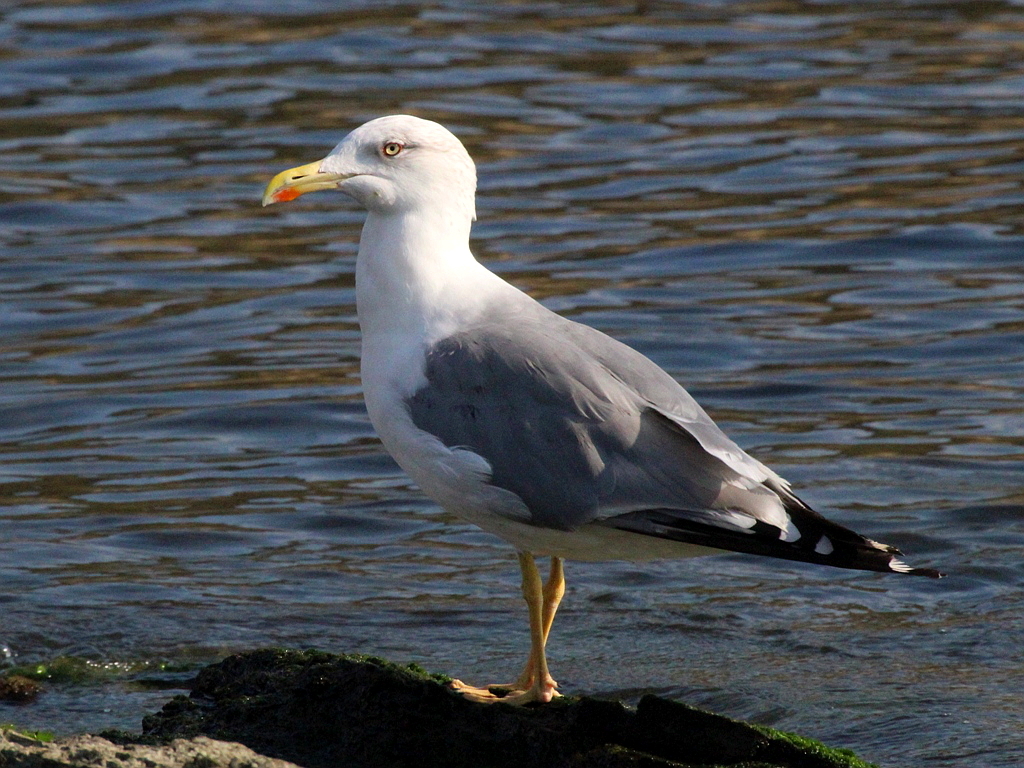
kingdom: Animalia
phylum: Chordata
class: Aves
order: Charadriiformes
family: Laridae
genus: Larus
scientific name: Larus michahellis
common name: Yellow-legged gull
